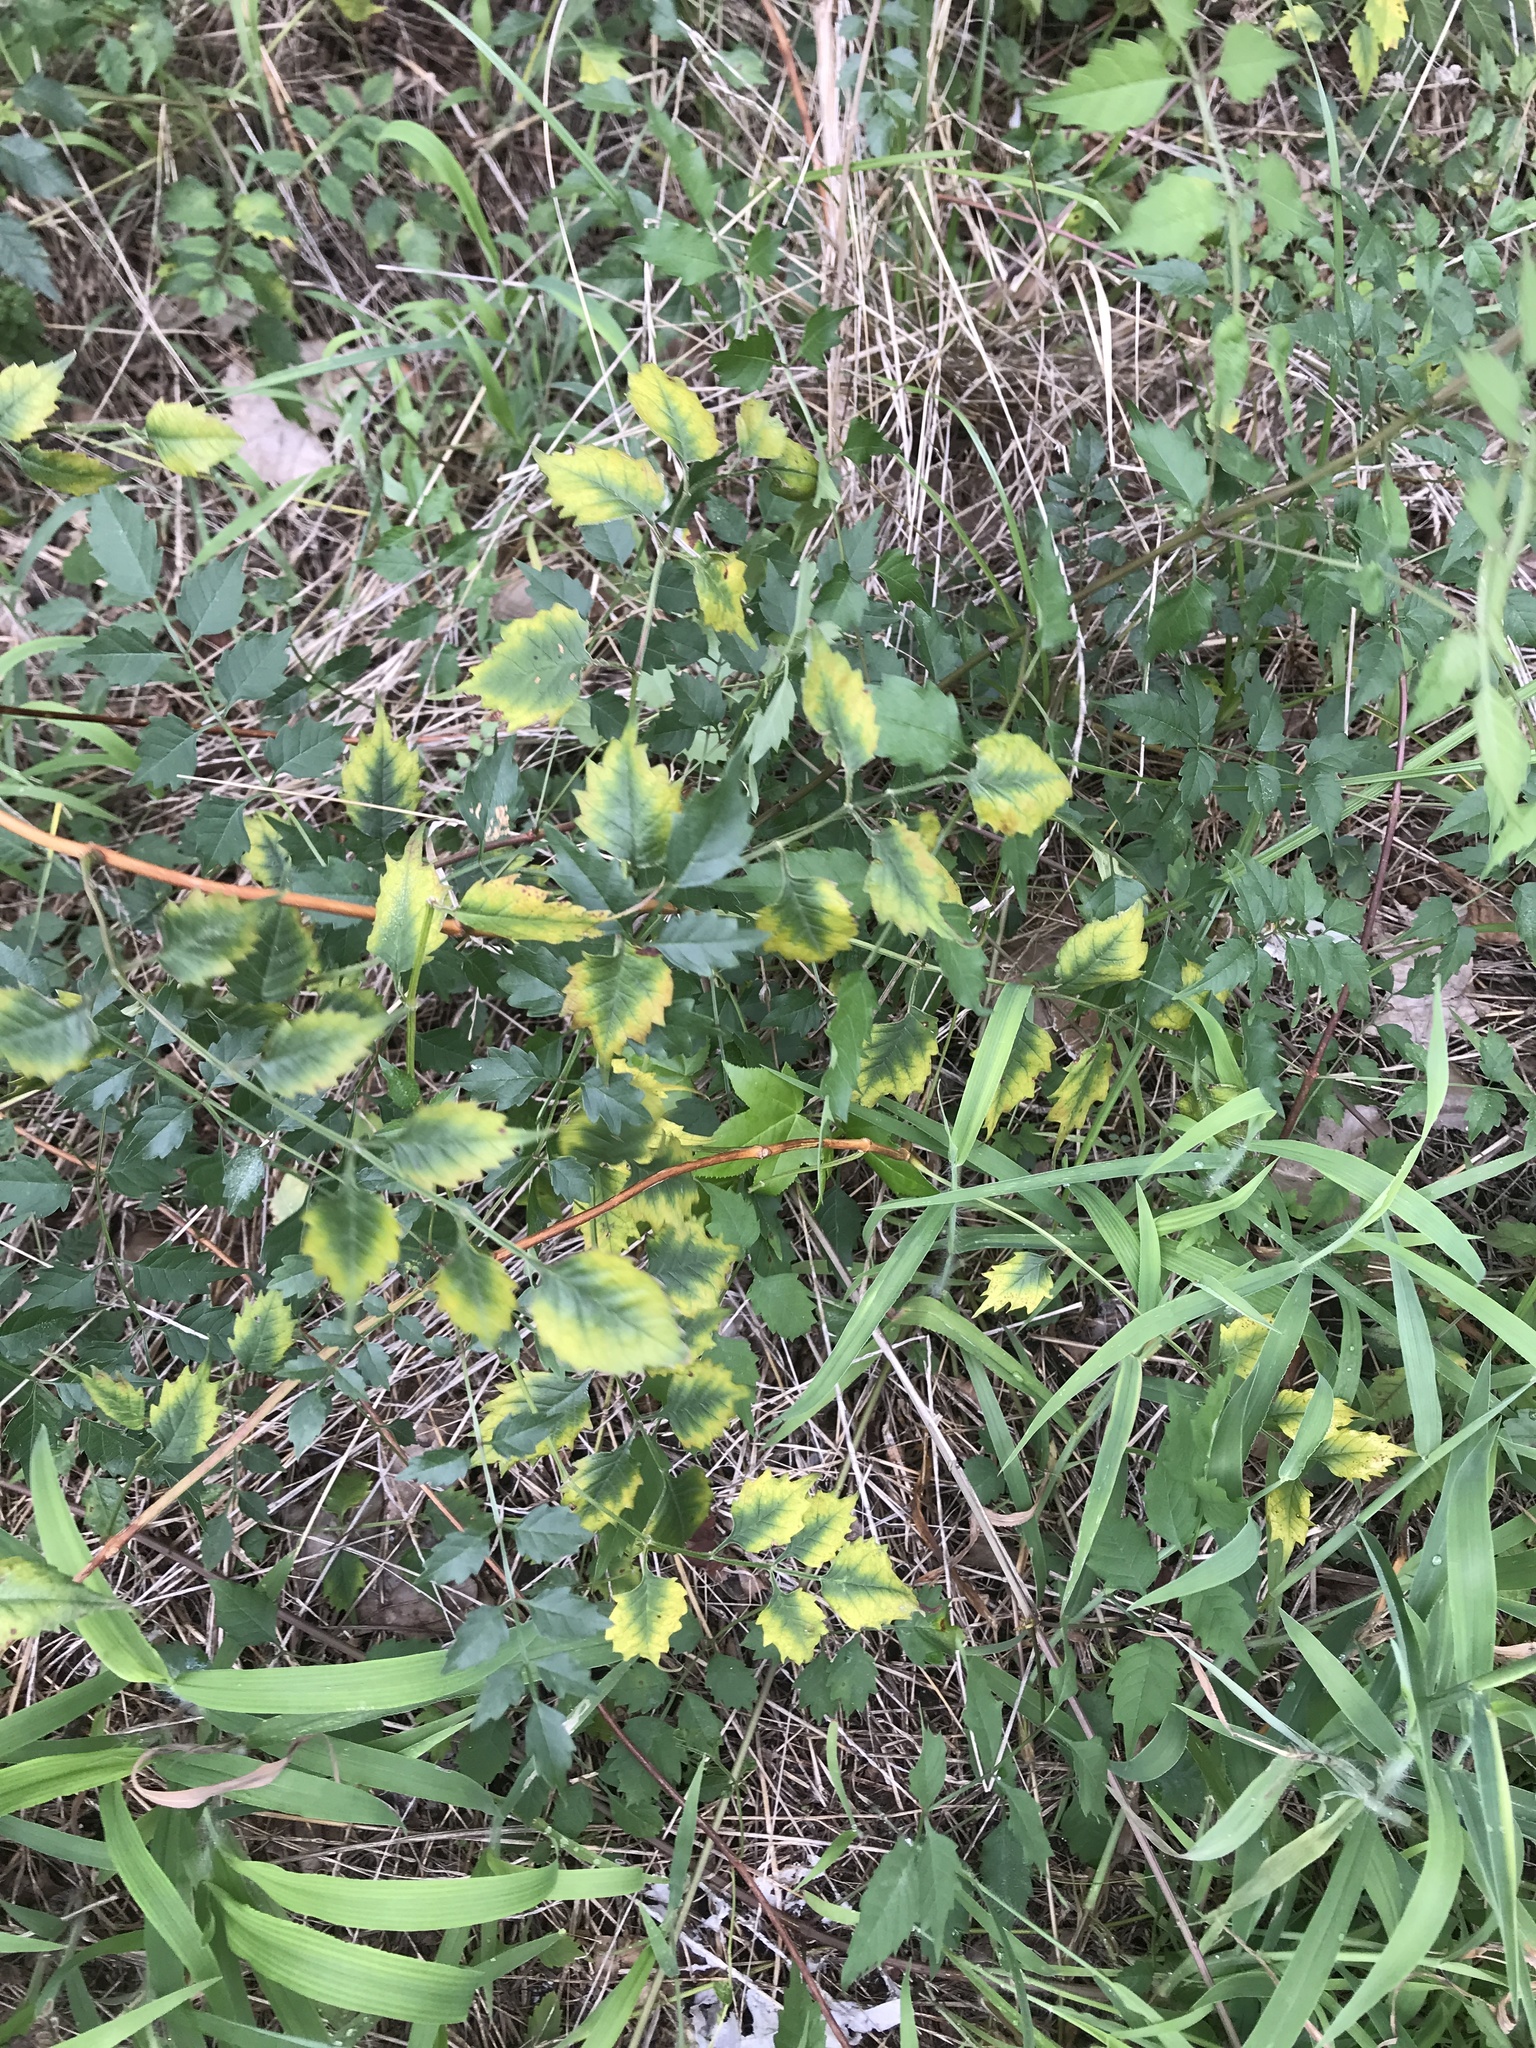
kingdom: Plantae
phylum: Tracheophyta
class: Magnoliopsida
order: Lamiales
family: Bignoniaceae
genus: Campsis
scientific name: Campsis radicans
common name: Trumpet-creeper
